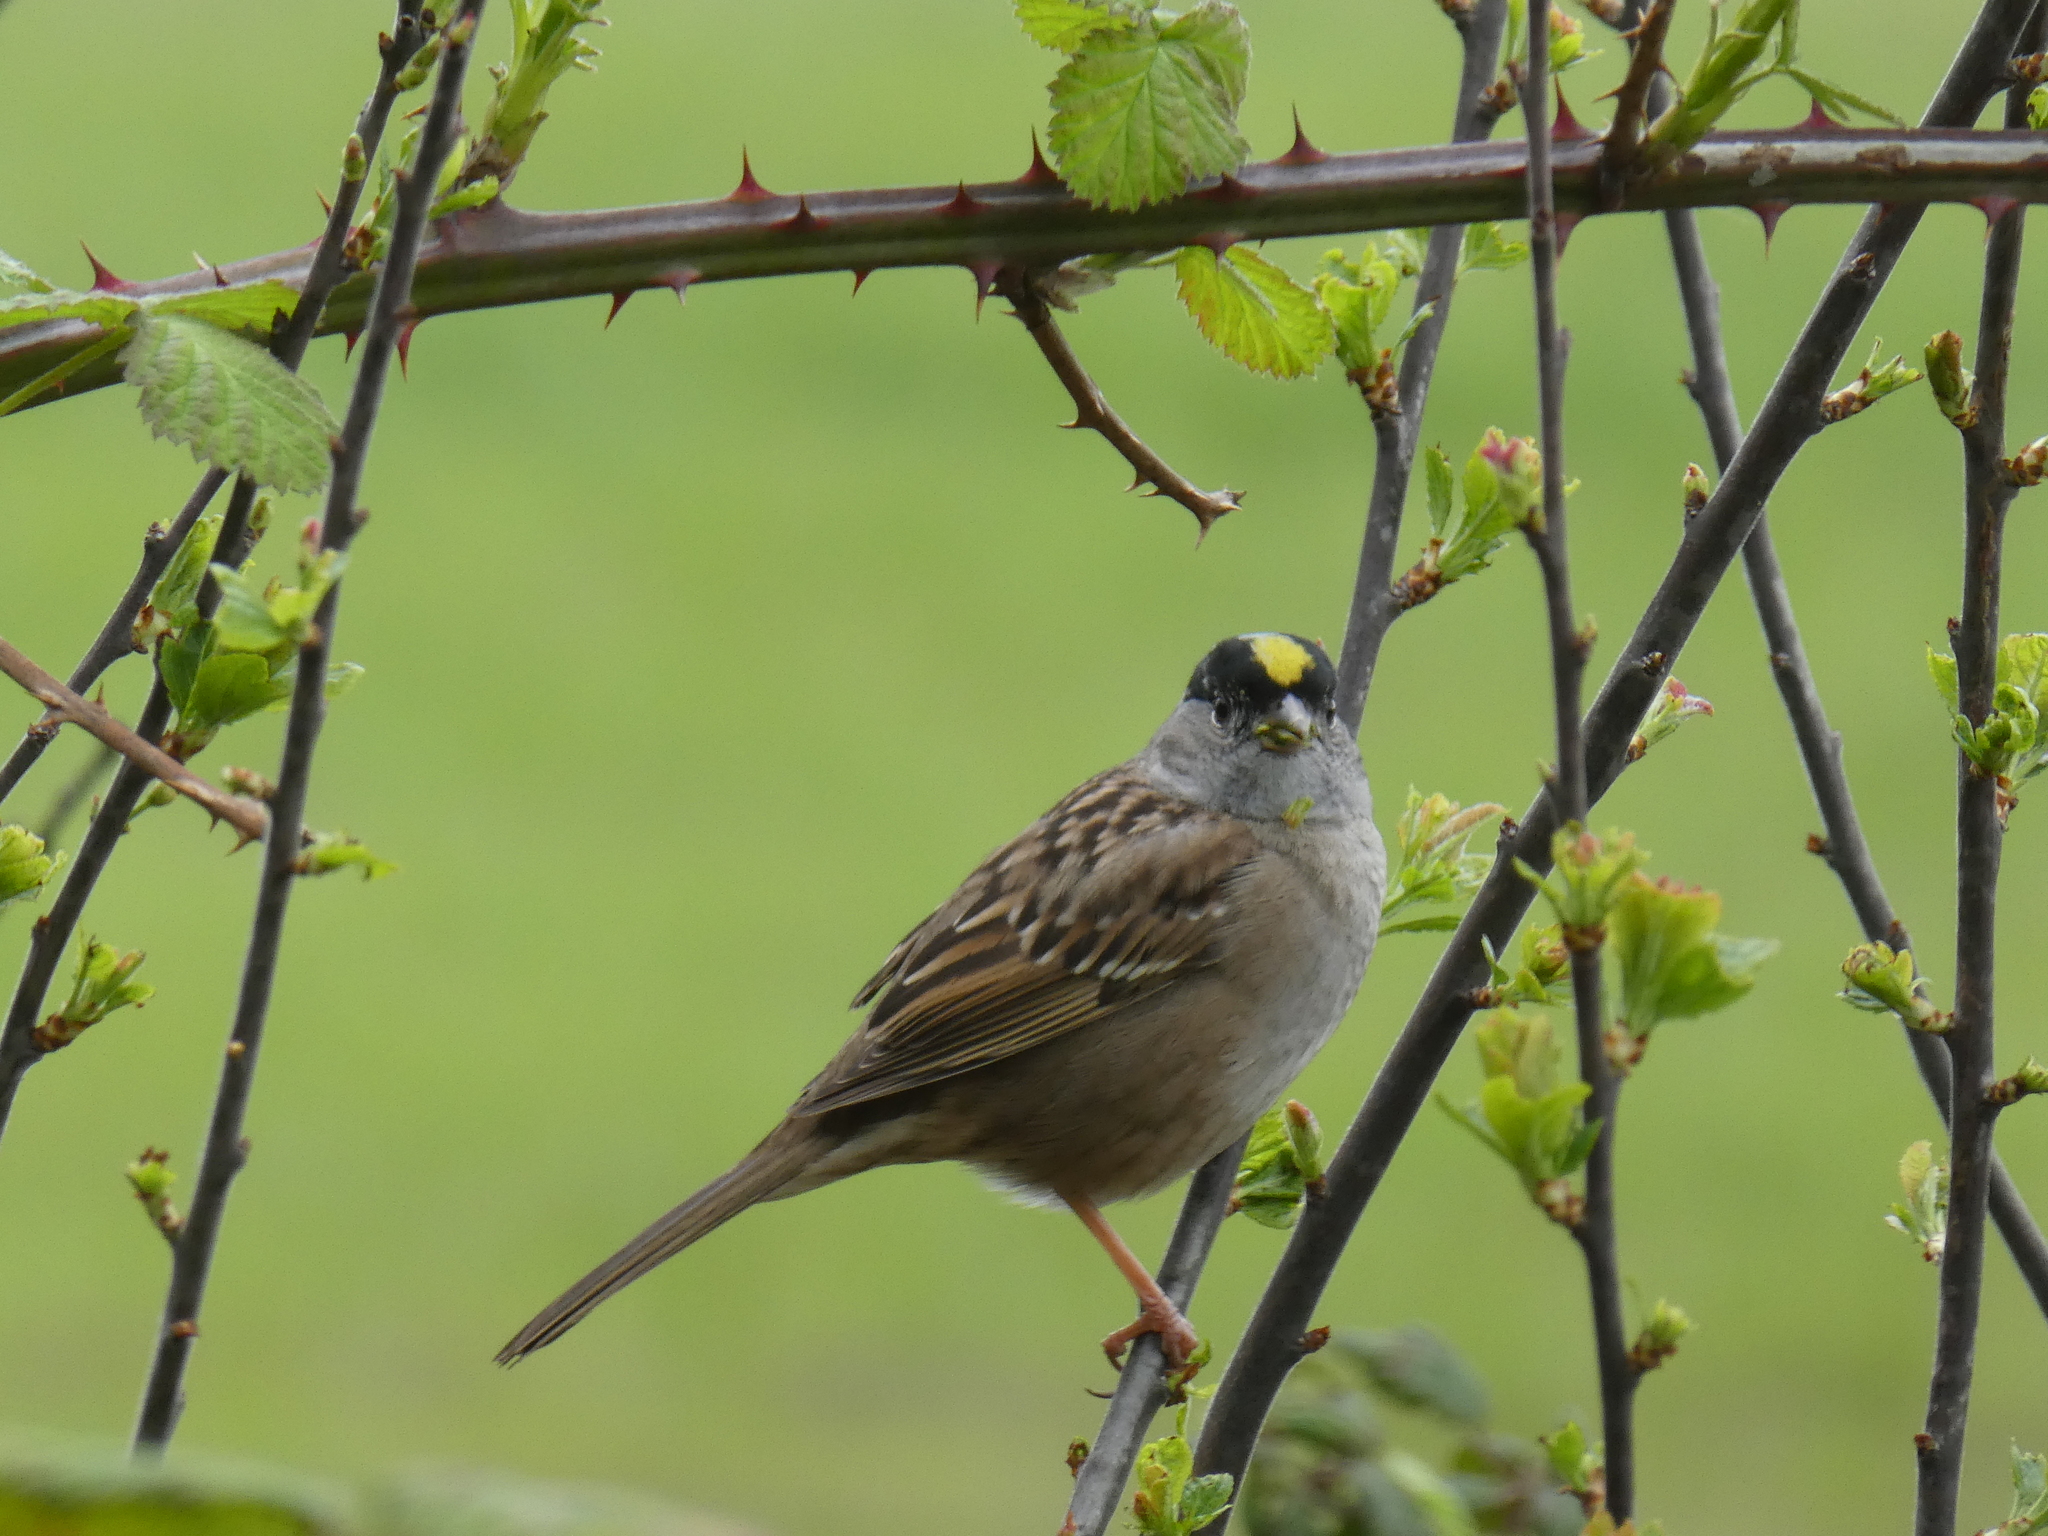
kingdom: Animalia
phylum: Chordata
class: Aves
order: Passeriformes
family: Passerellidae
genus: Zonotrichia
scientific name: Zonotrichia atricapilla
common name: Golden-crowned sparrow
